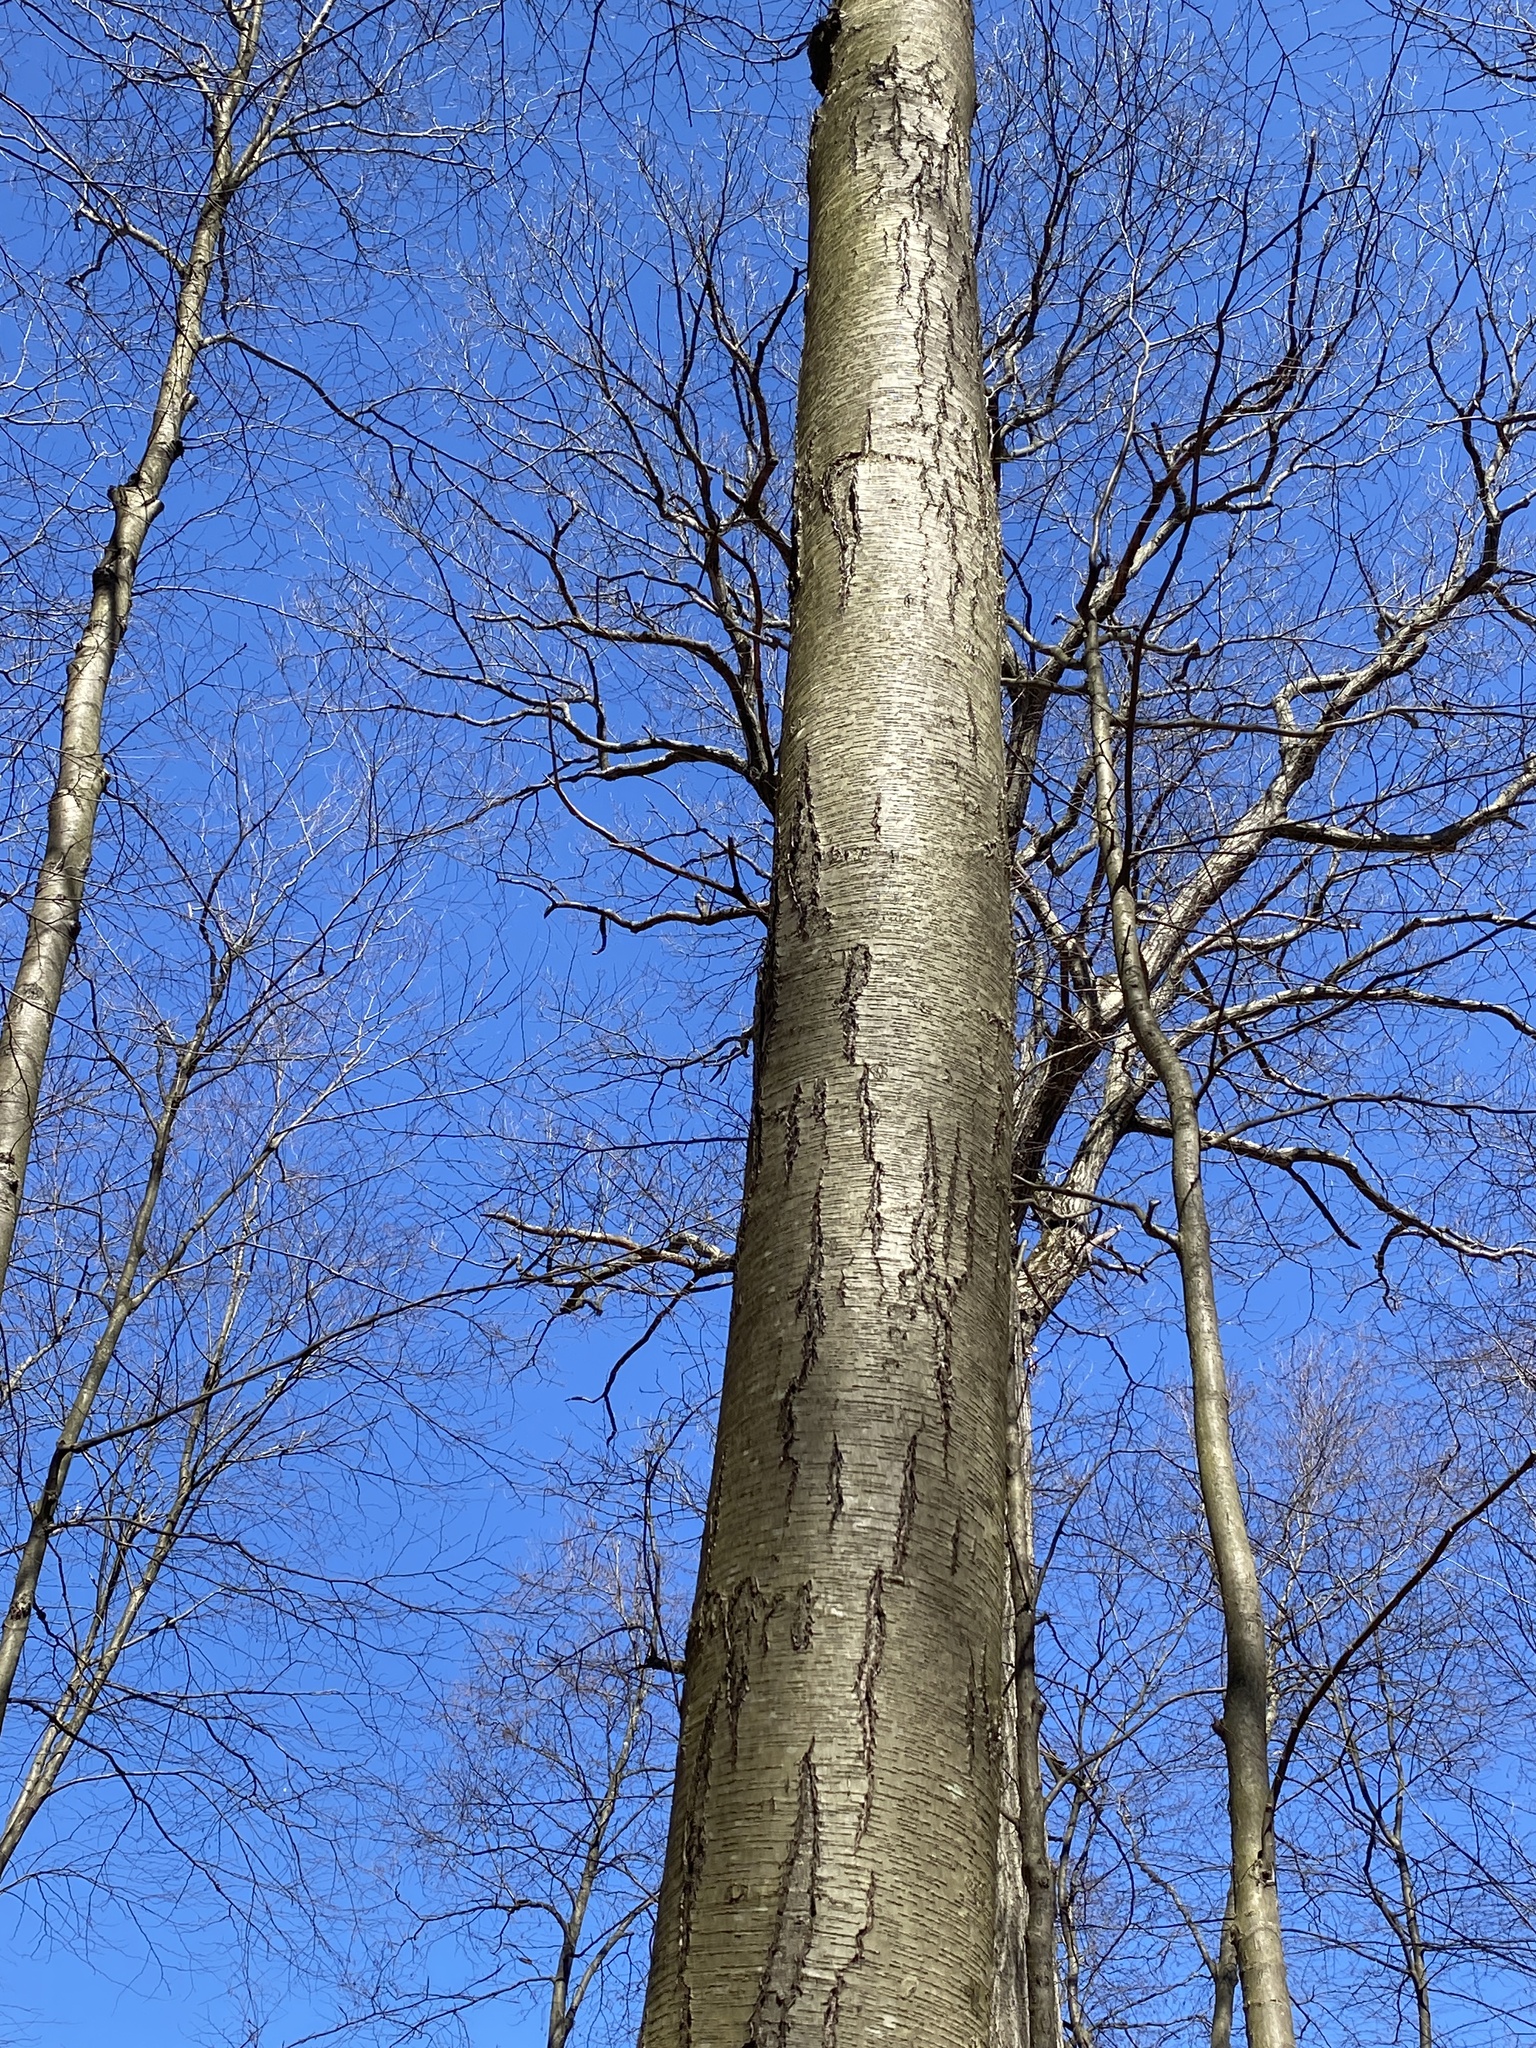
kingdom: Plantae
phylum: Tracheophyta
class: Magnoliopsida
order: Fagales
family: Betulaceae
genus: Betula
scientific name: Betula lenta
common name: Black birch
